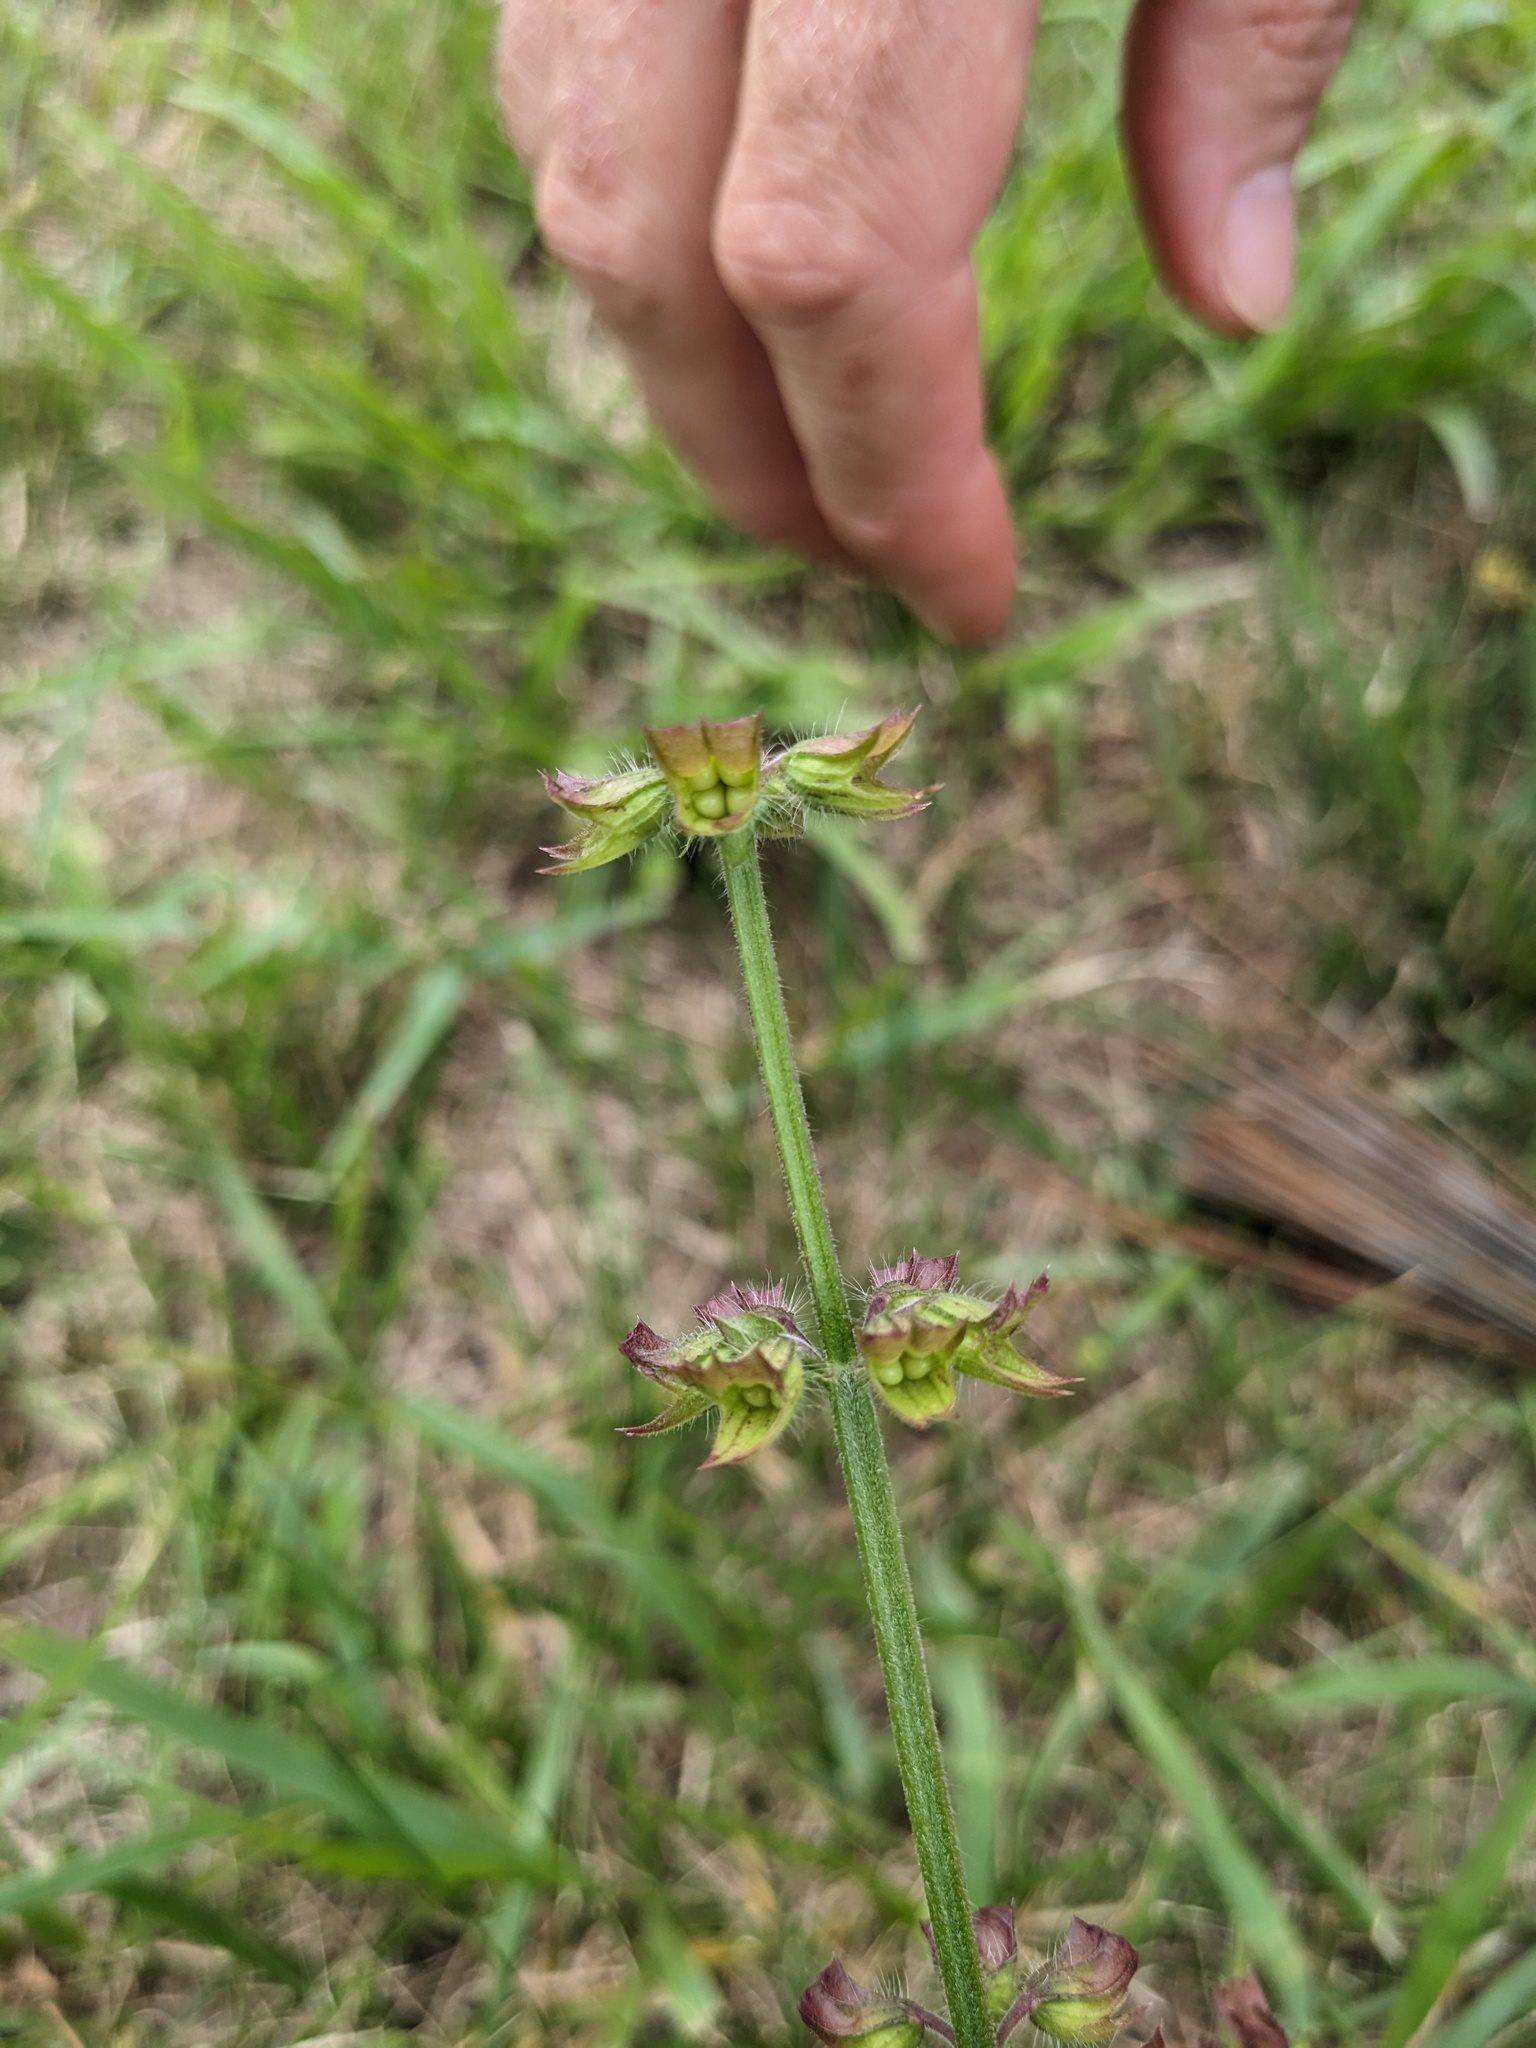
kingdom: Plantae
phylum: Tracheophyta
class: Magnoliopsida
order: Lamiales
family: Lamiaceae
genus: Salvia
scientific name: Salvia lyrata
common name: Cancerweed
